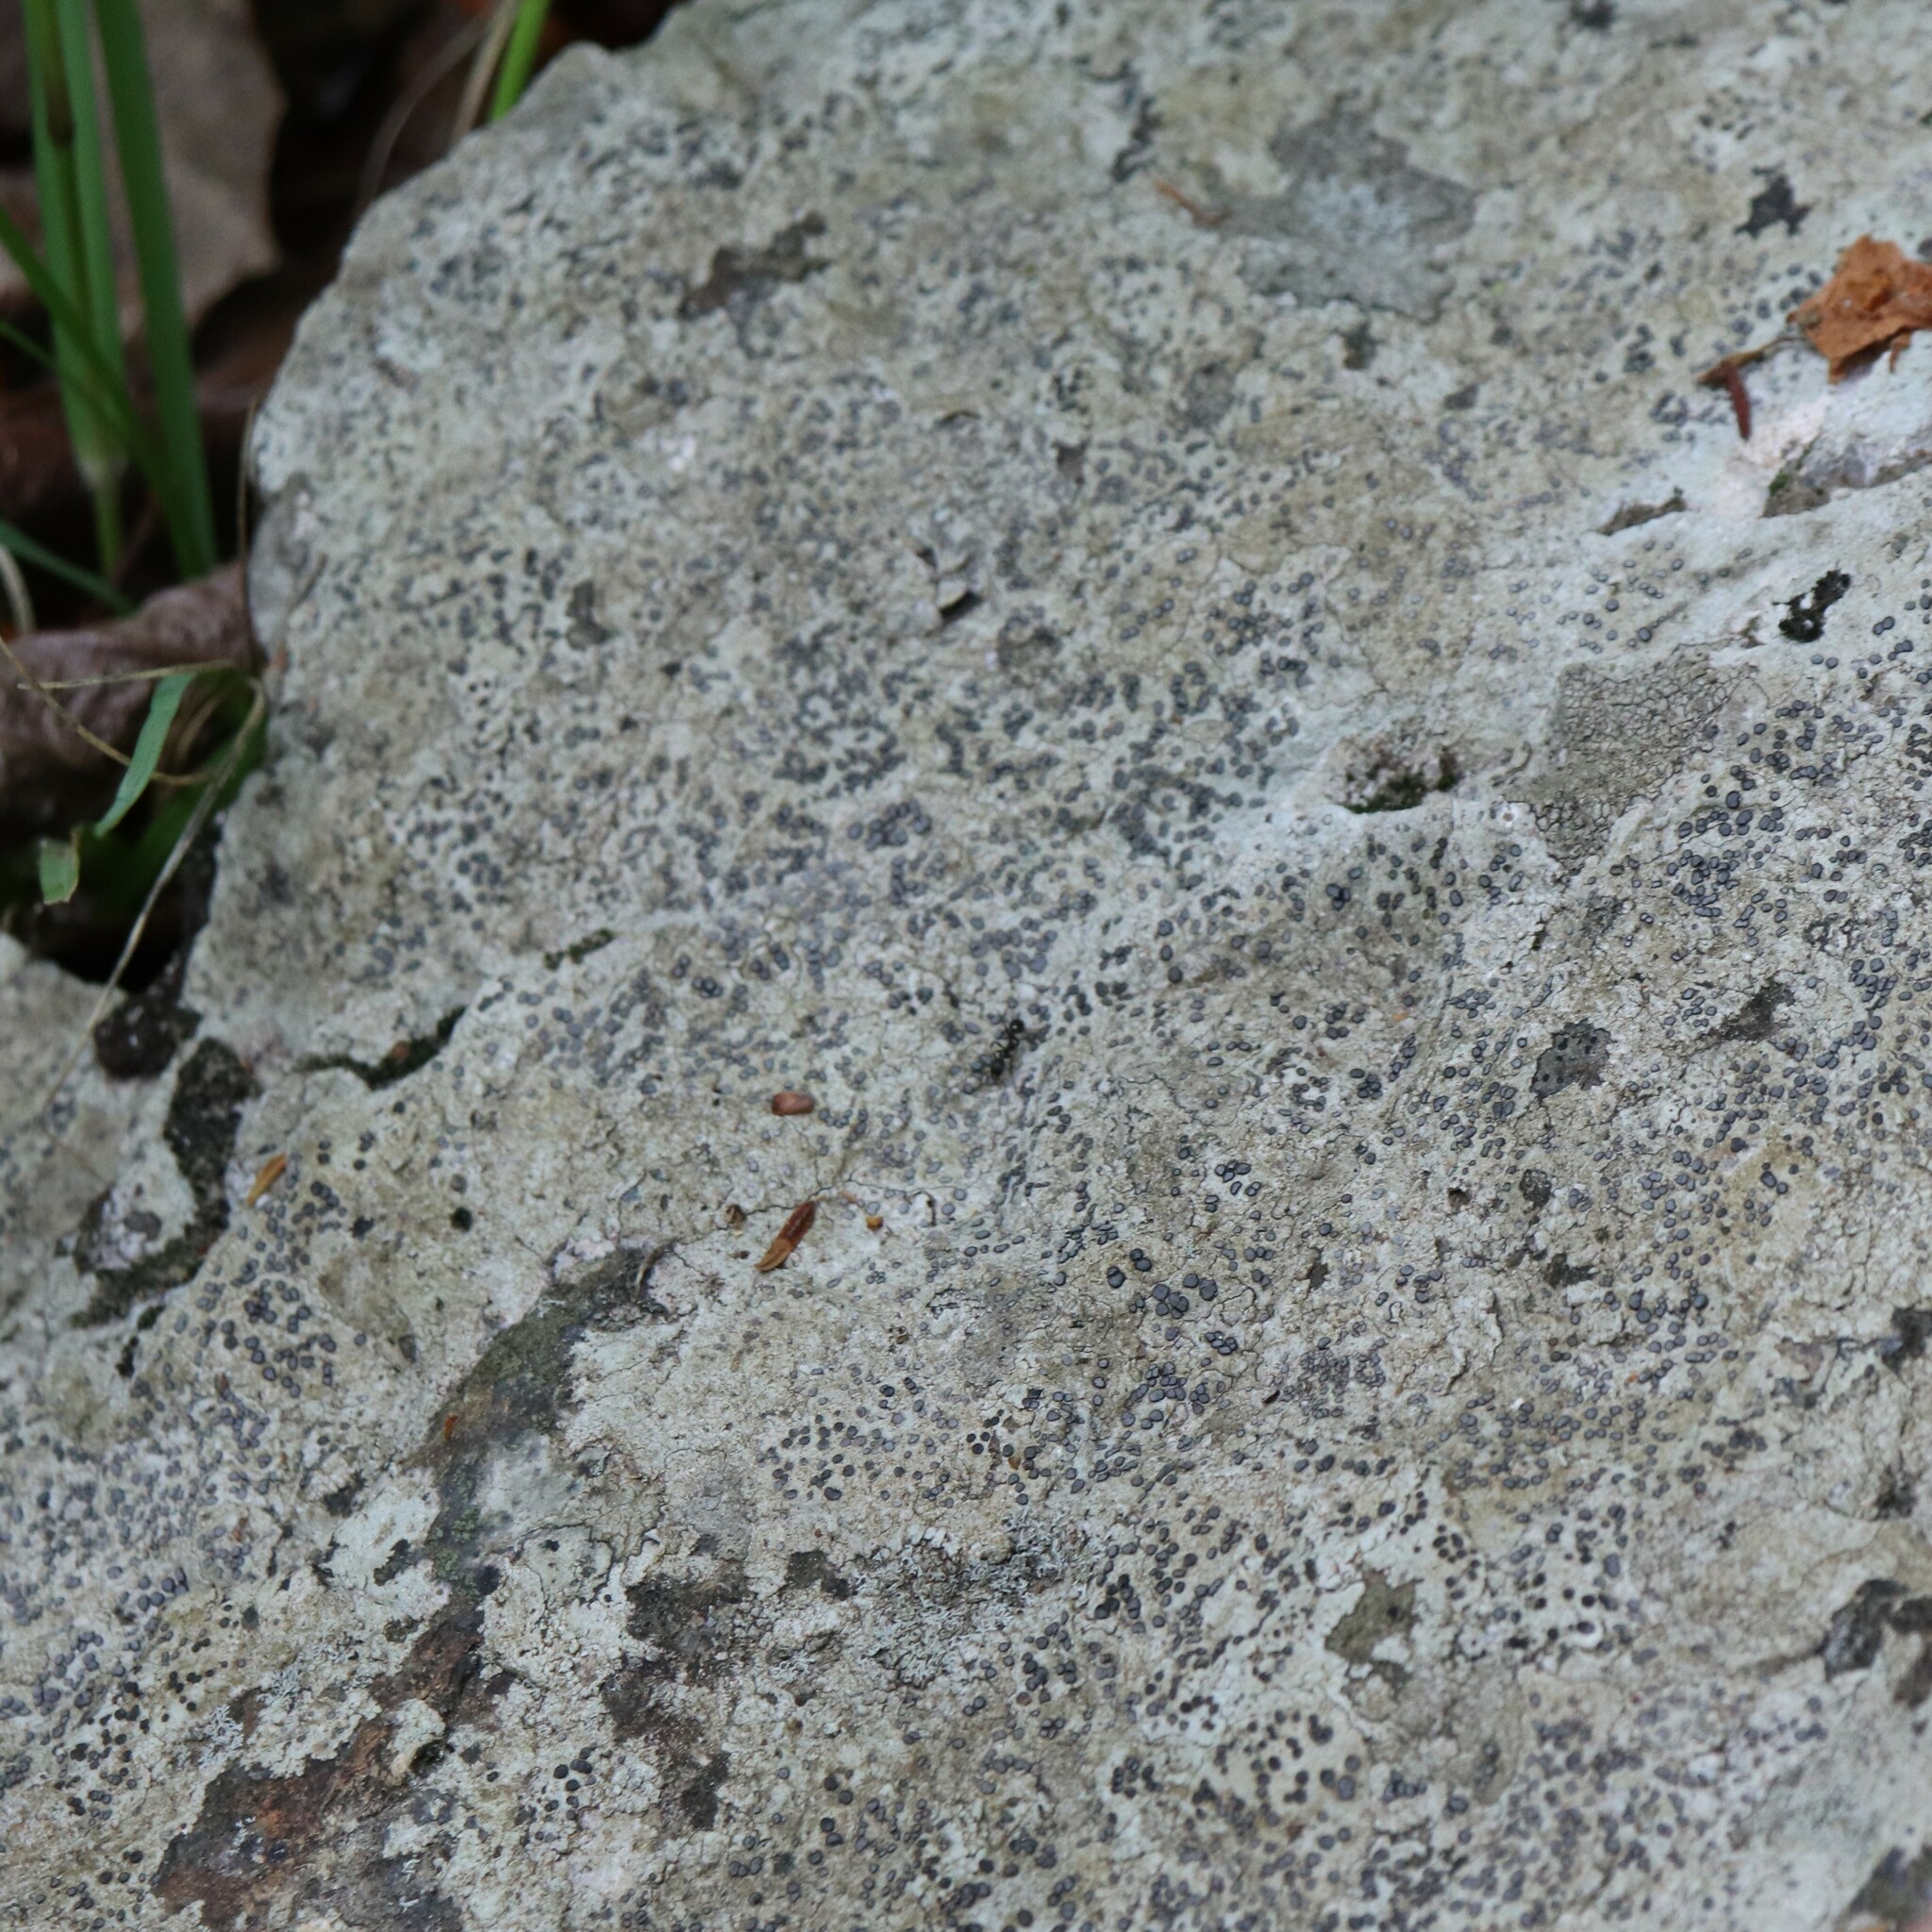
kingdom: Fungi
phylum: Ascomycota
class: Lecanoromycetes
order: Lecideales
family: Lecideaceae
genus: Porpidia
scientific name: Porpidia albocaerulescens
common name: Smokey-eyed boulder lichen
